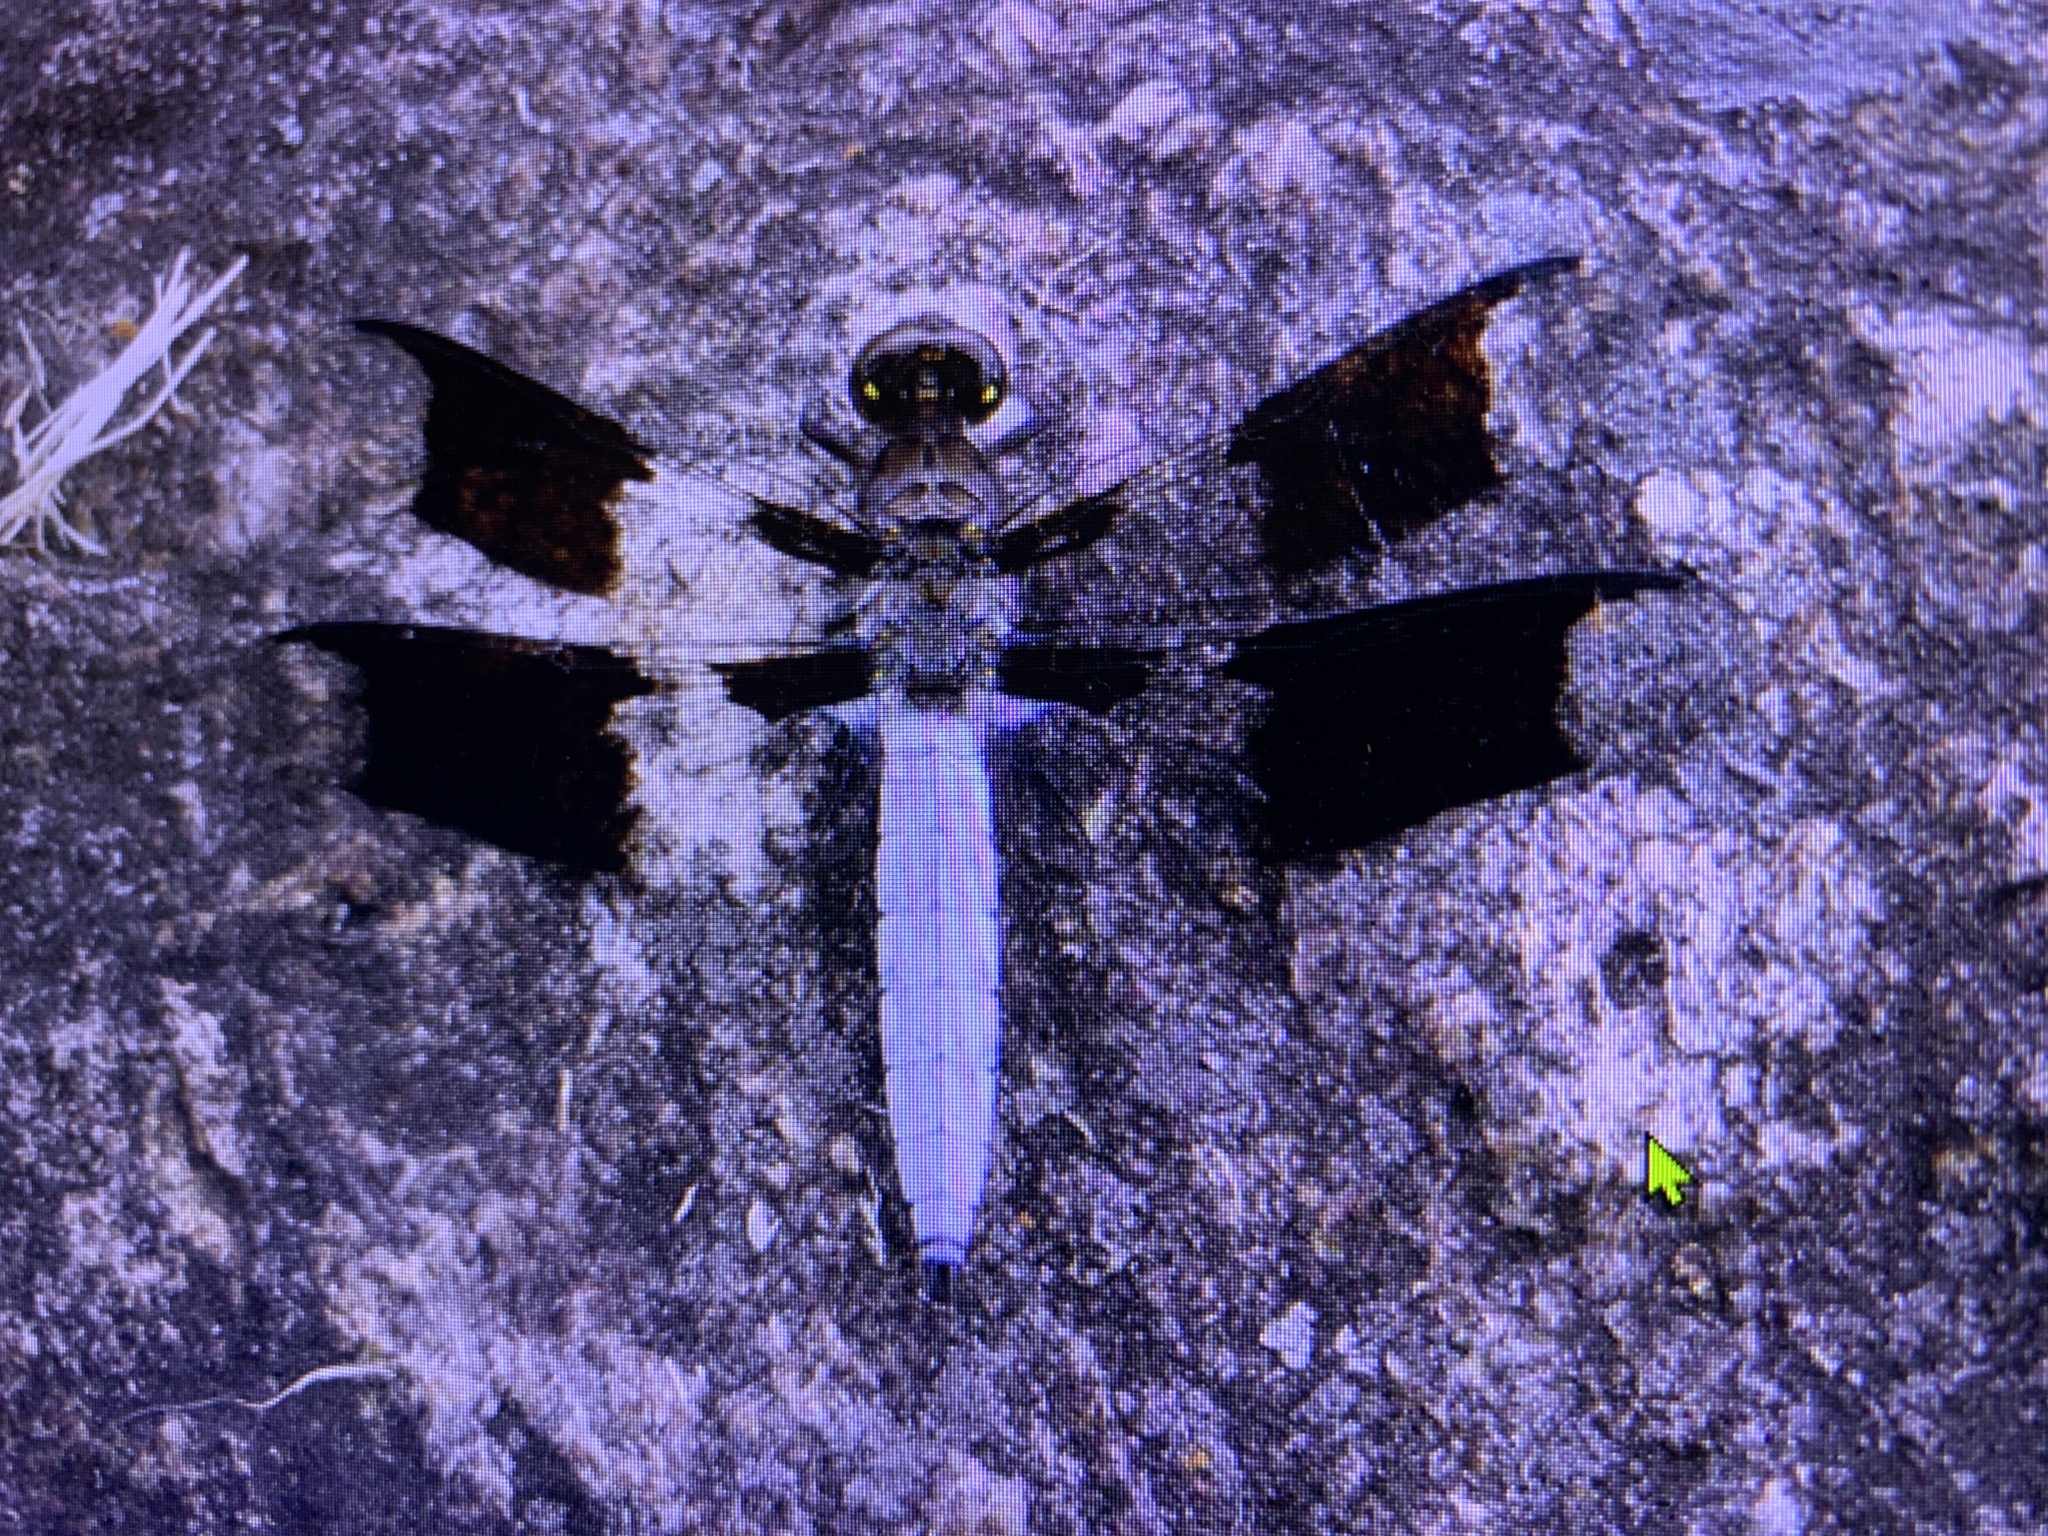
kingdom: Animalia
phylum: Arthropoda
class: Insecta
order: Odonata
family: Libellulidae
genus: Plathemis
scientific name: Plathemis lydia
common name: Common whitetail
